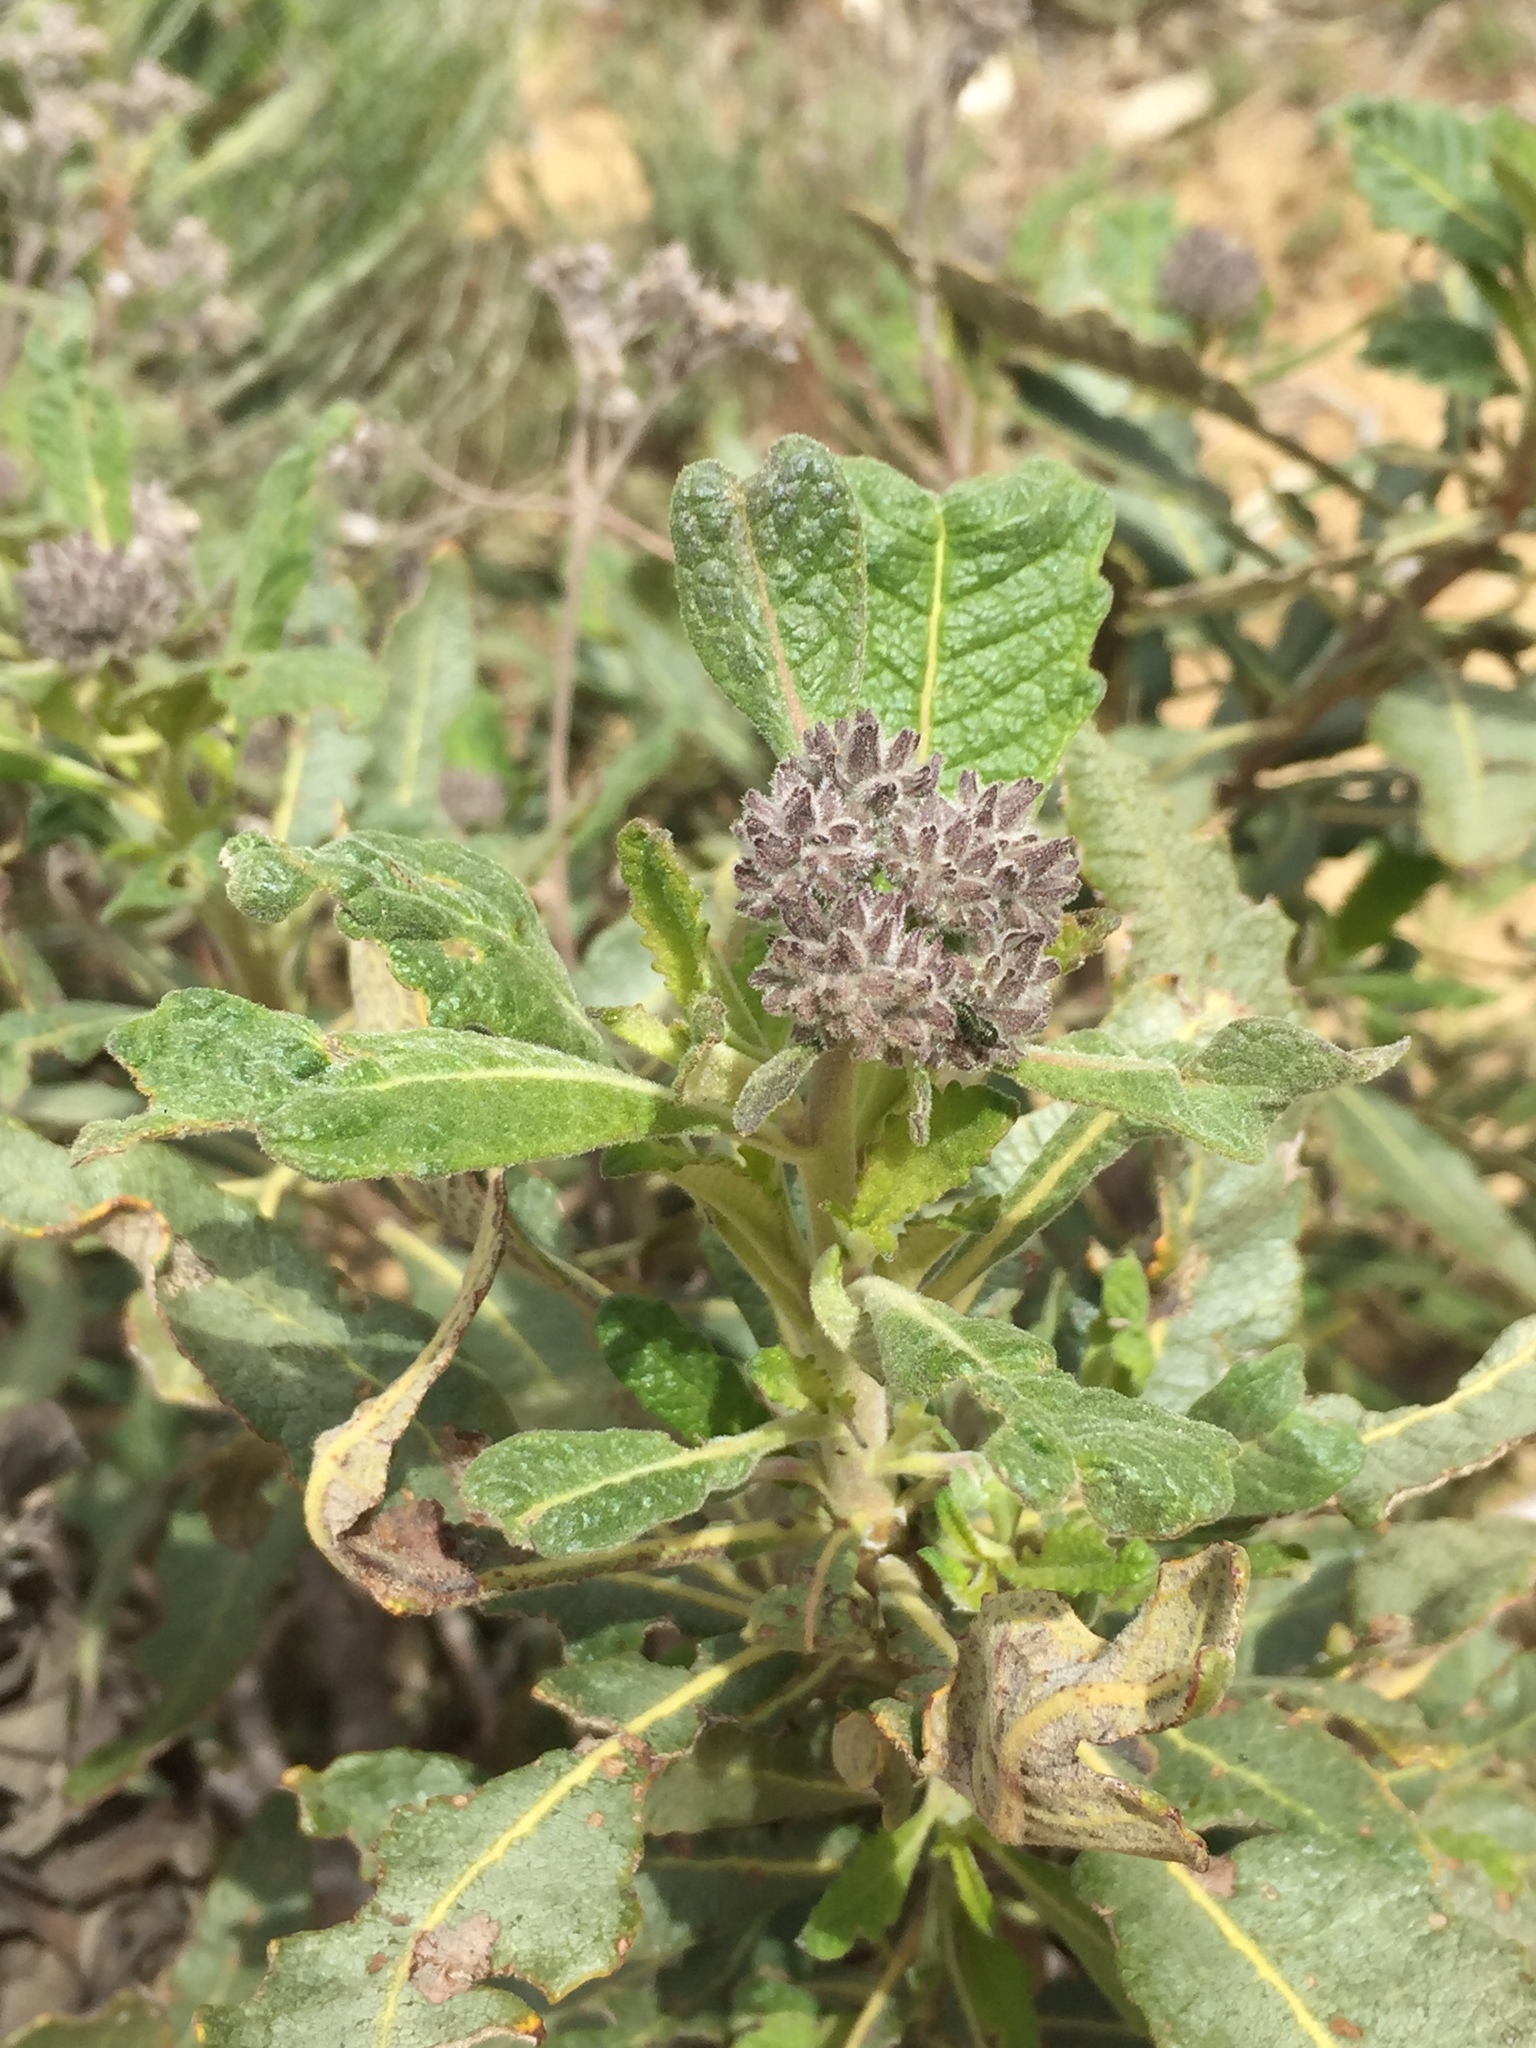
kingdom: Plantae
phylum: Tracheophyta
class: Magnoliopsida
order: Boraginales
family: Namaceae
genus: Eriodictyon
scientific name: Eriodictyon crassifolium
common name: Thick-leaf yerba-santa
